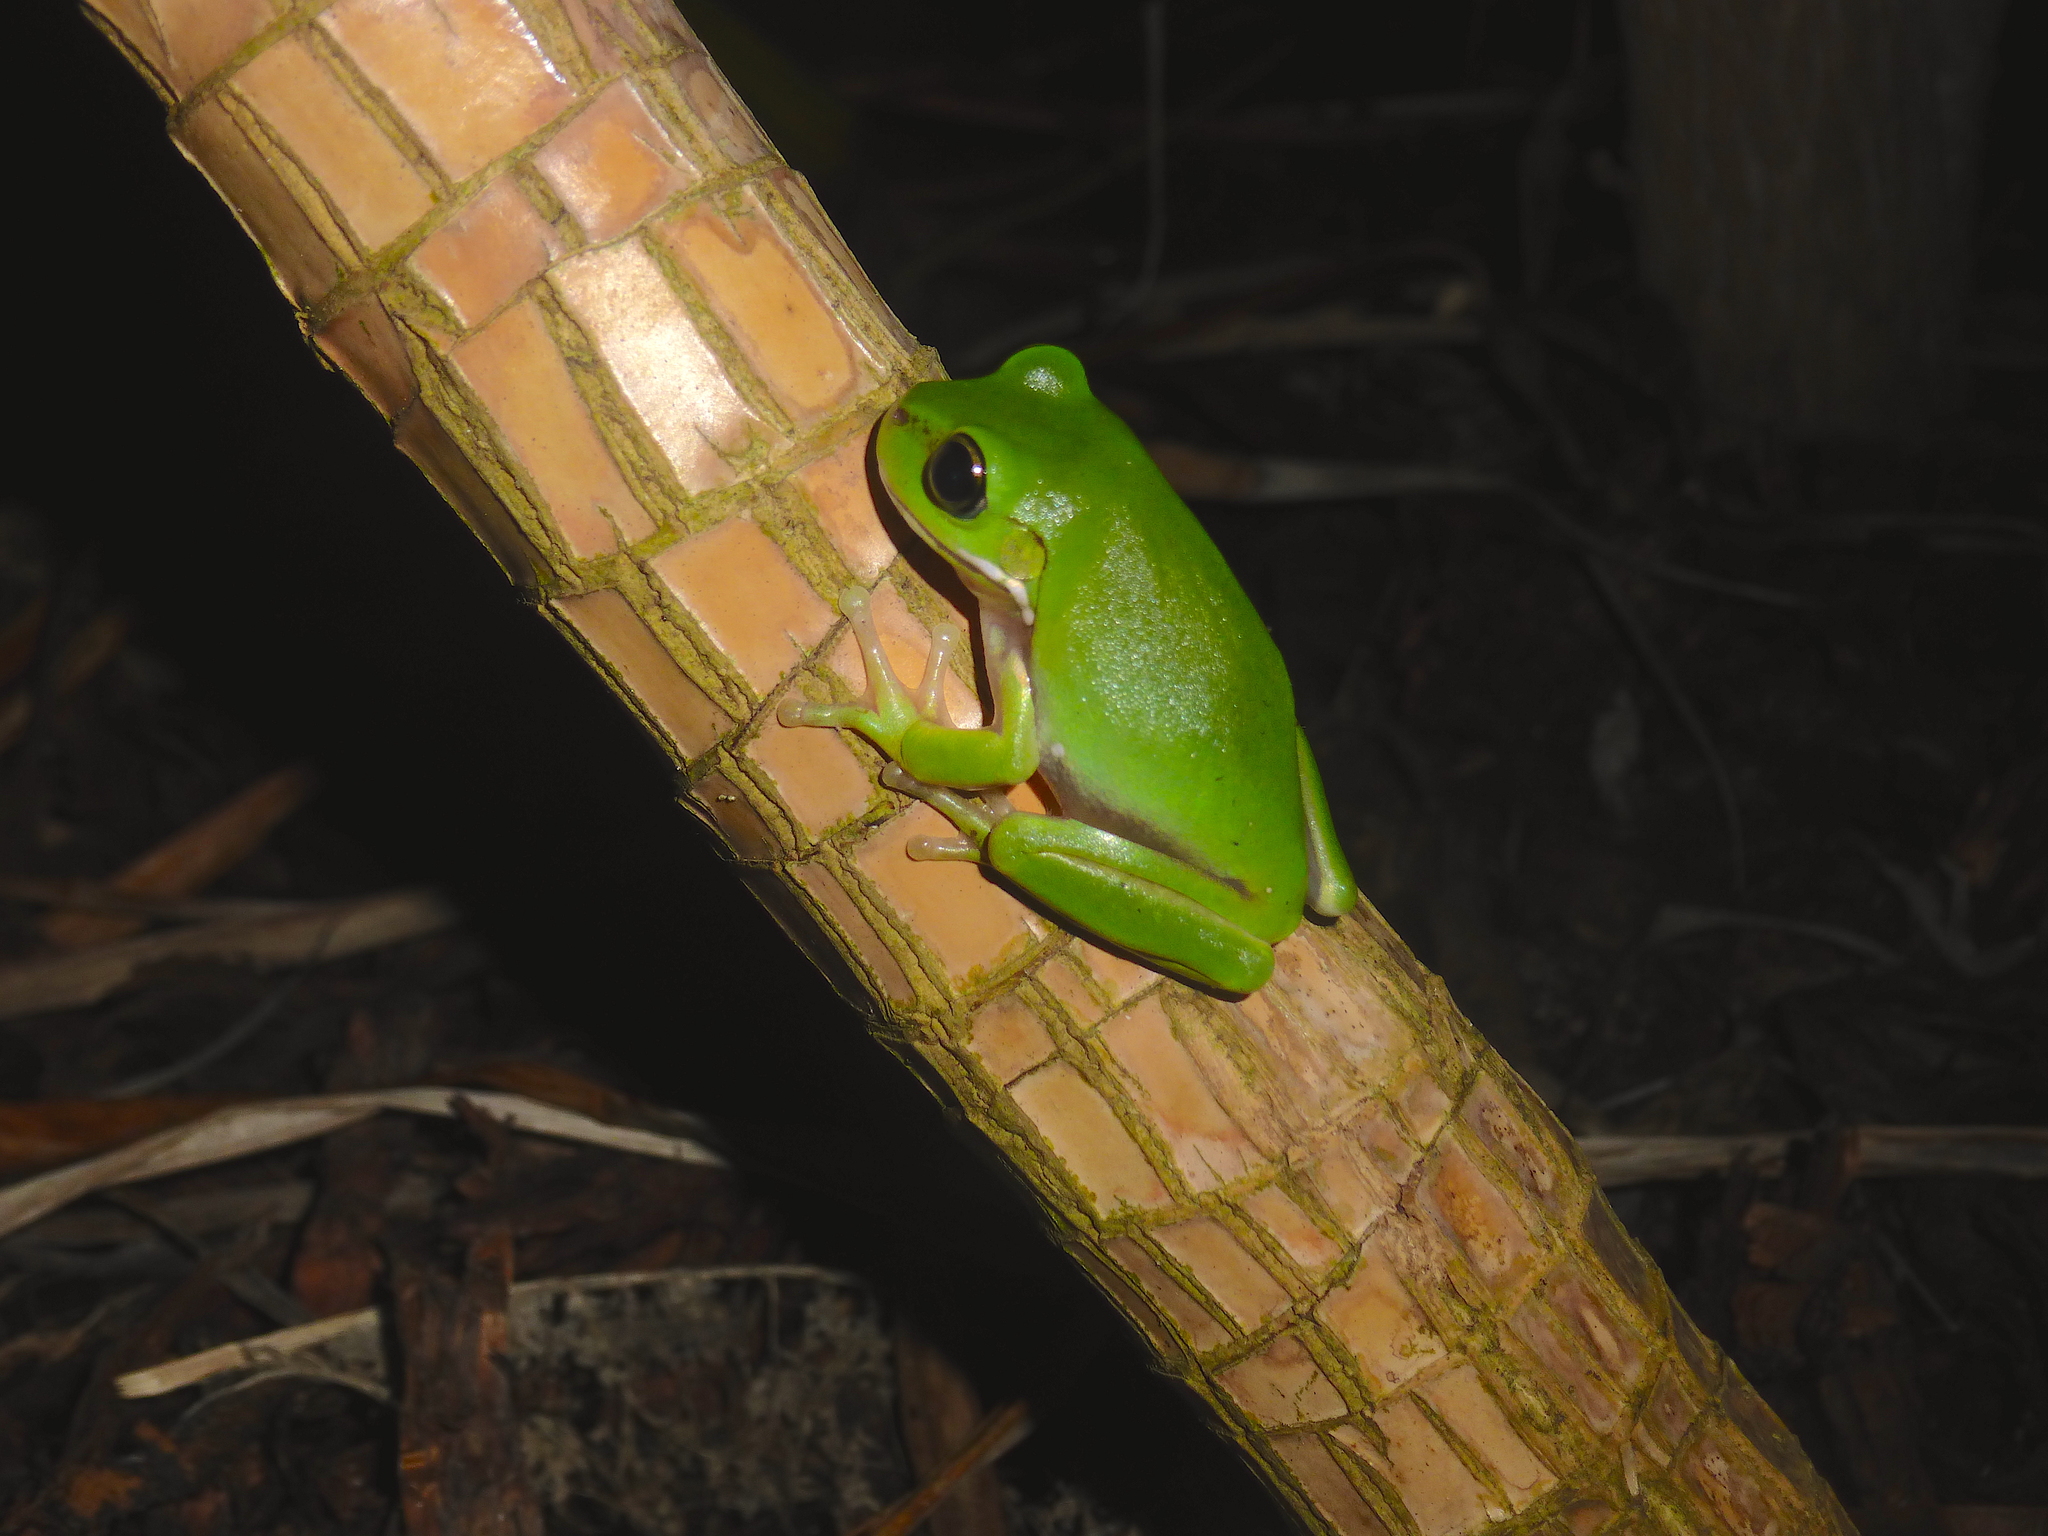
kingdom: Animalia
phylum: Chordata
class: Amphibia
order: Anura
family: Pelodryadidae
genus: Ranoidea
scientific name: Ranoidea caerulea
